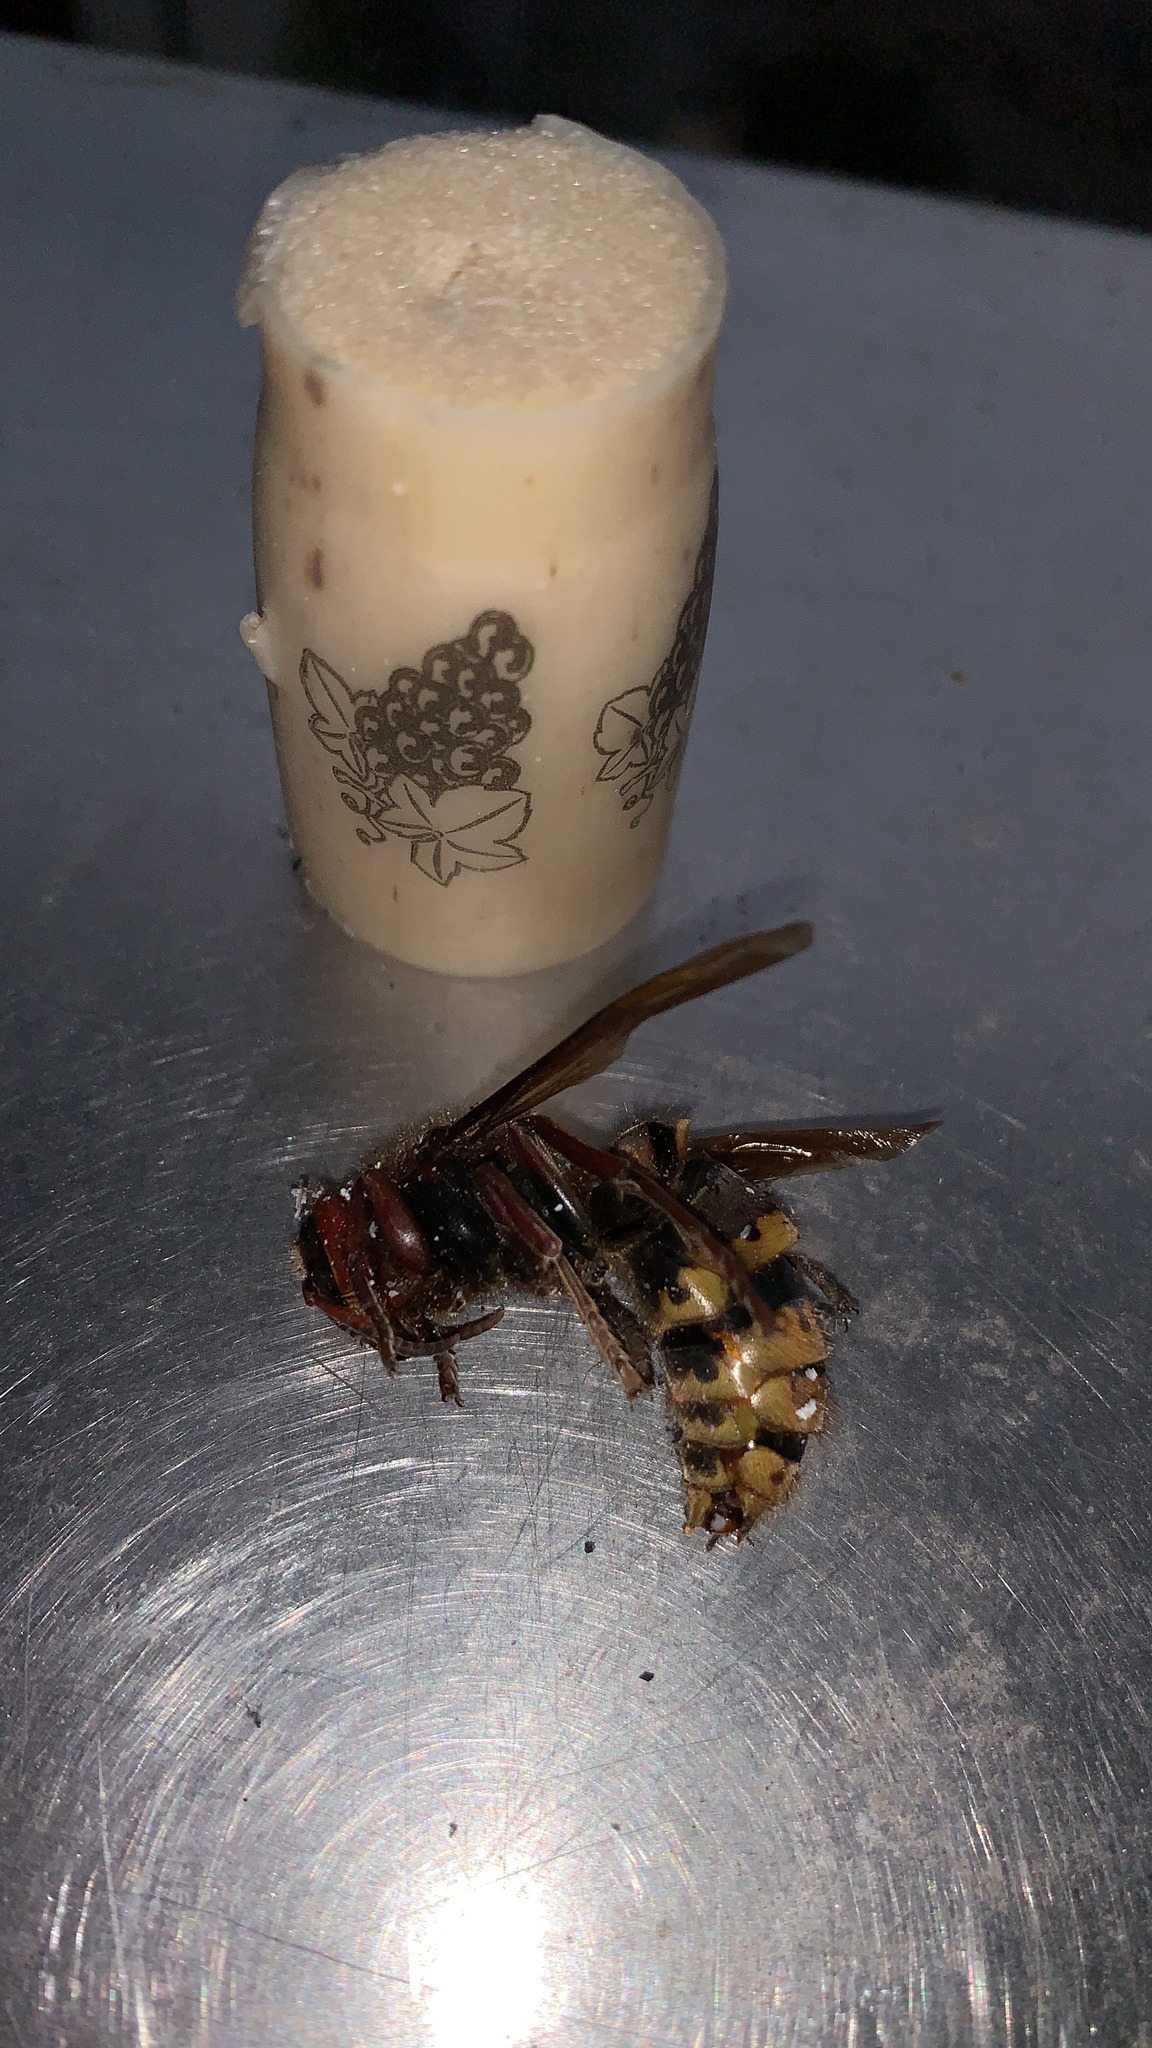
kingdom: Animalia
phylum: Arthropoda
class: Insecta
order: Hymenoptera
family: Vespidae
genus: Vespa
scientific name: Vespa crabro
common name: Hornet
